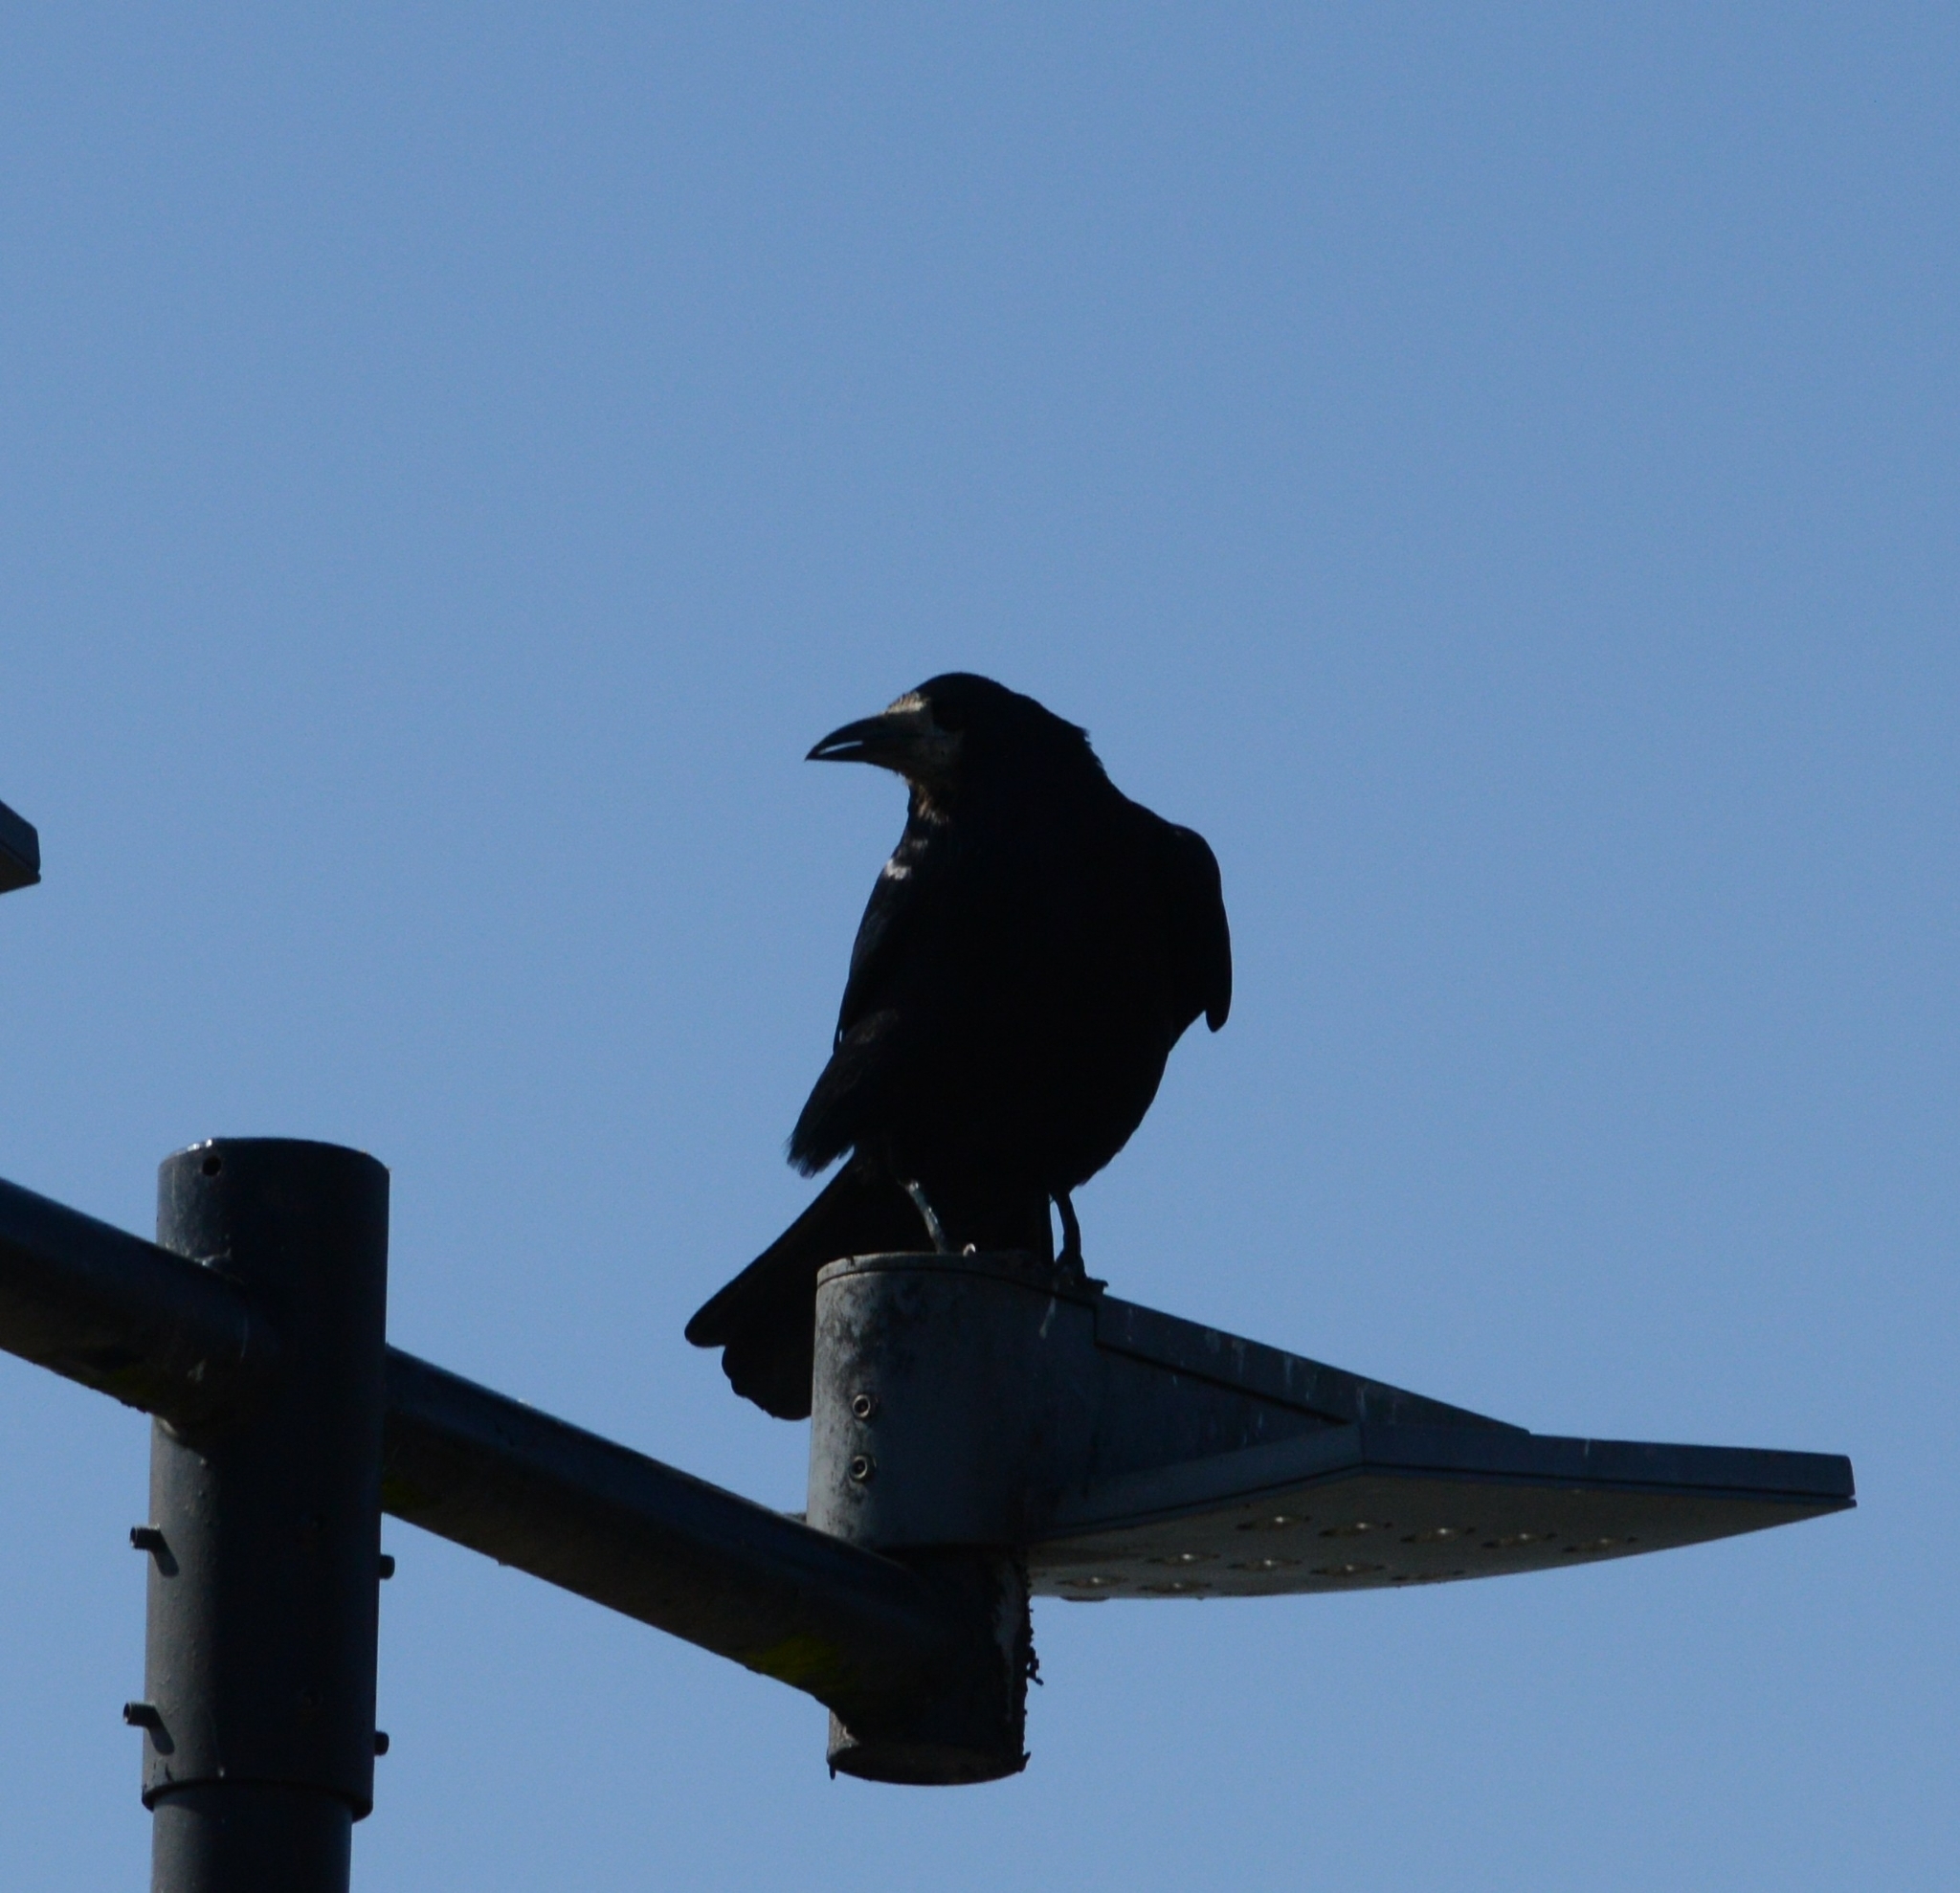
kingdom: Animalia
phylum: Chordata
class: Aves
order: Passeriformes
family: Corvidae
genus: Corvus
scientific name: Corvus frugilegus
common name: Rook
